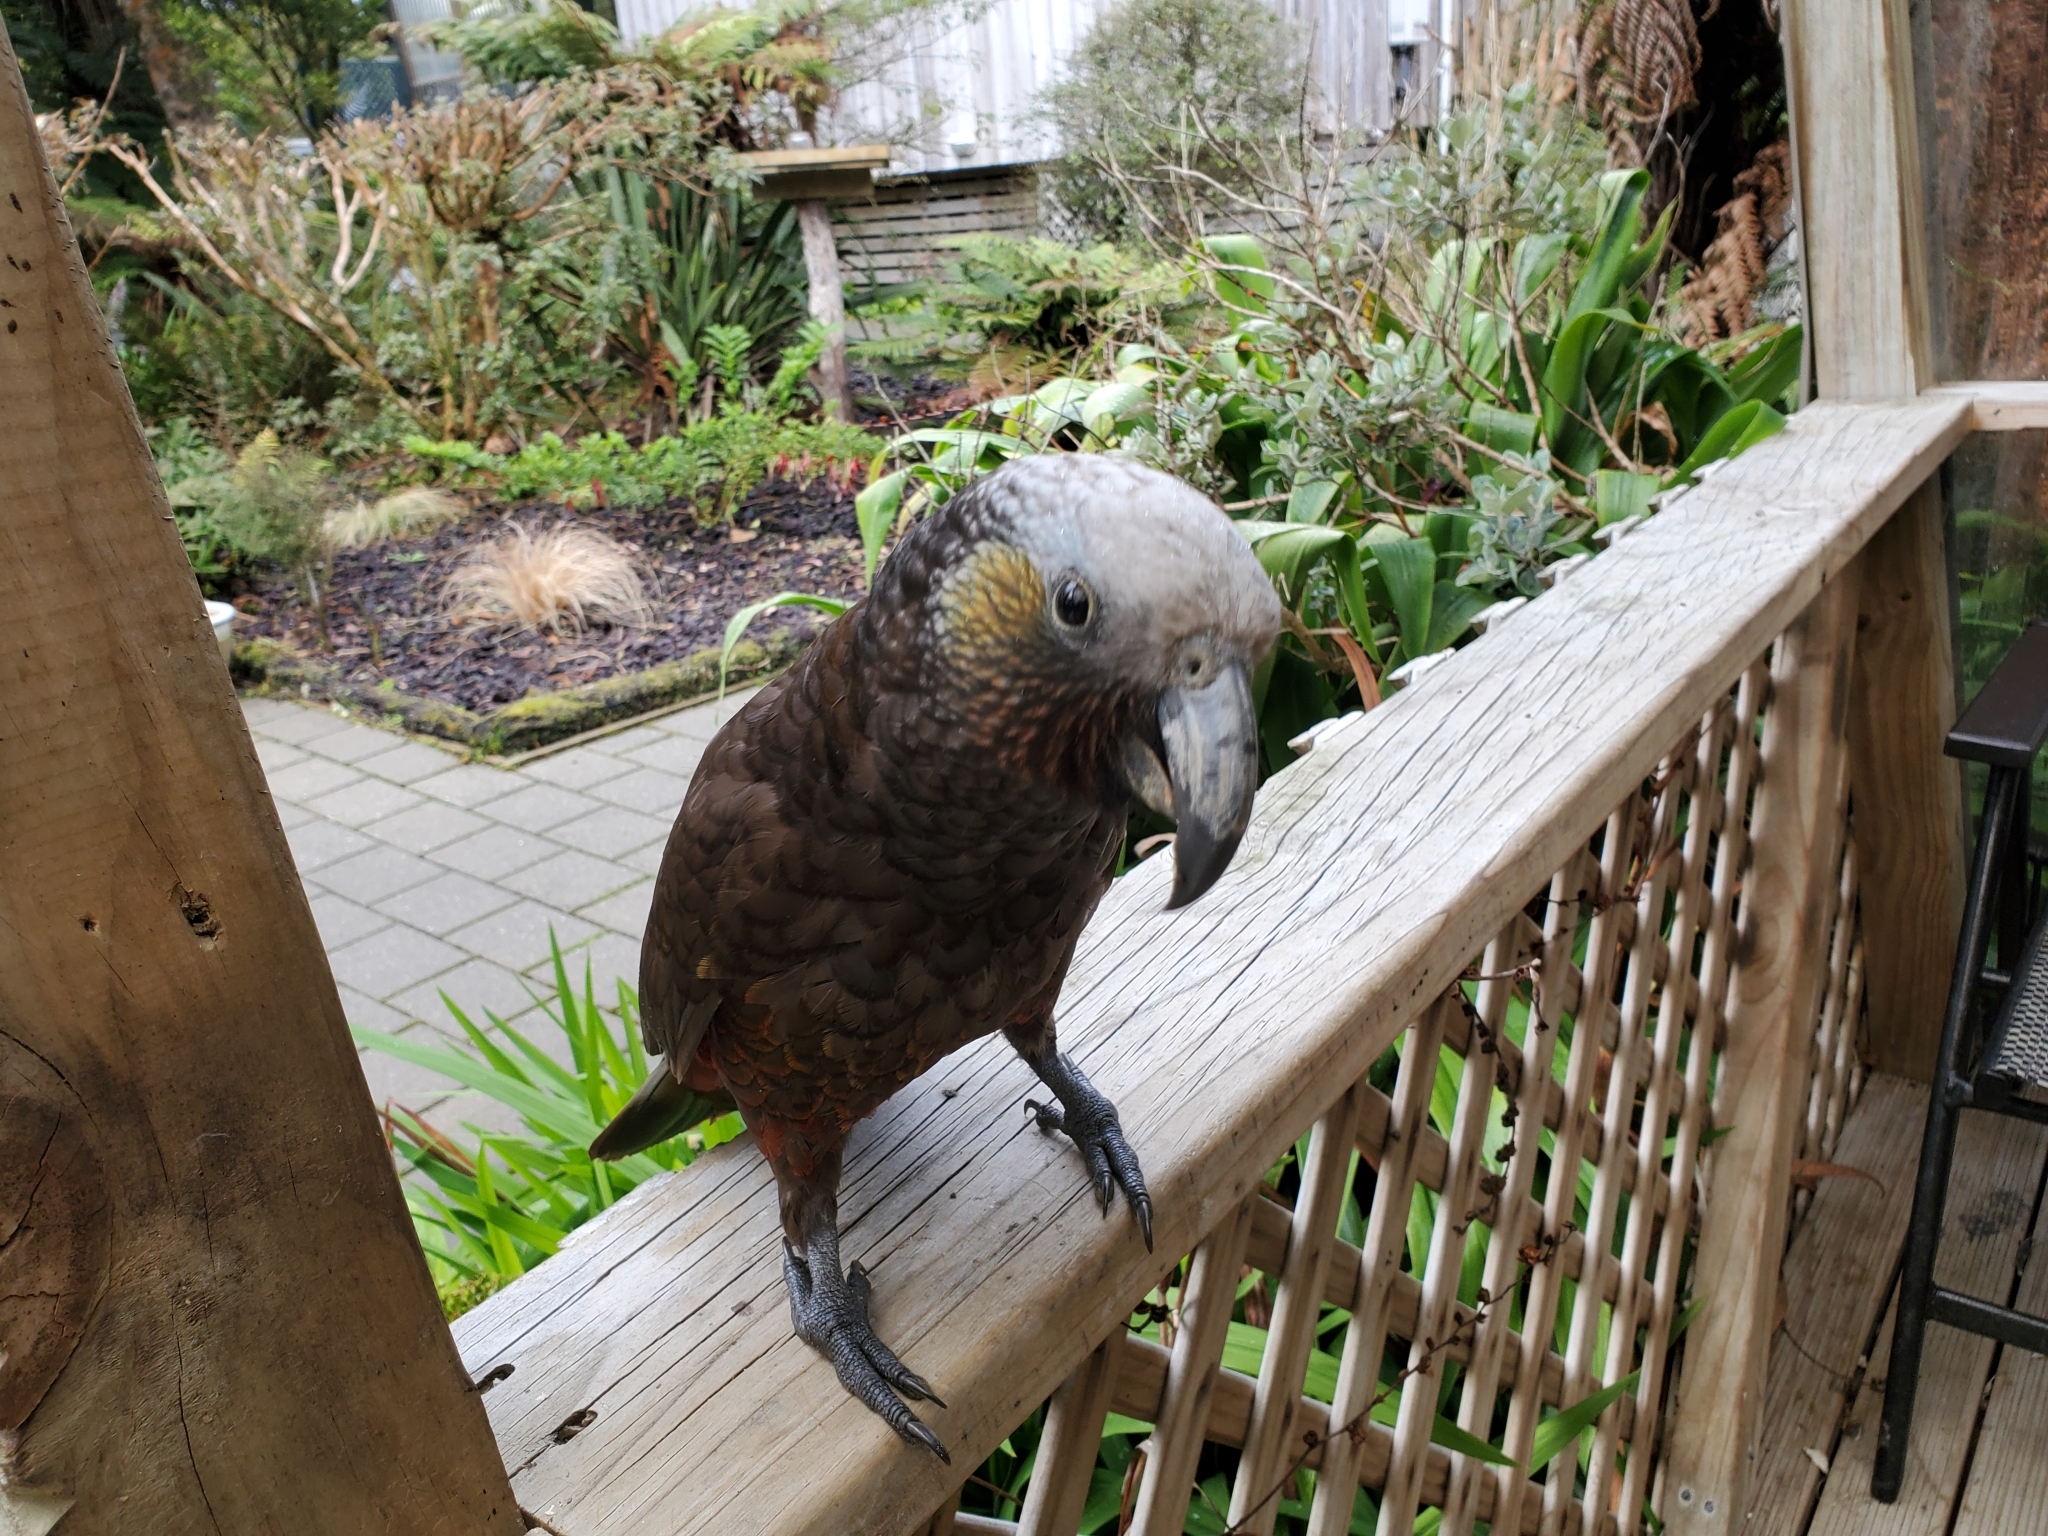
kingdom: Animalia
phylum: Chordata
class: Aves
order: Psittaciformes
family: Psittacidae
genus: Nestor
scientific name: Nestor meridionalis
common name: New zealand kaka
